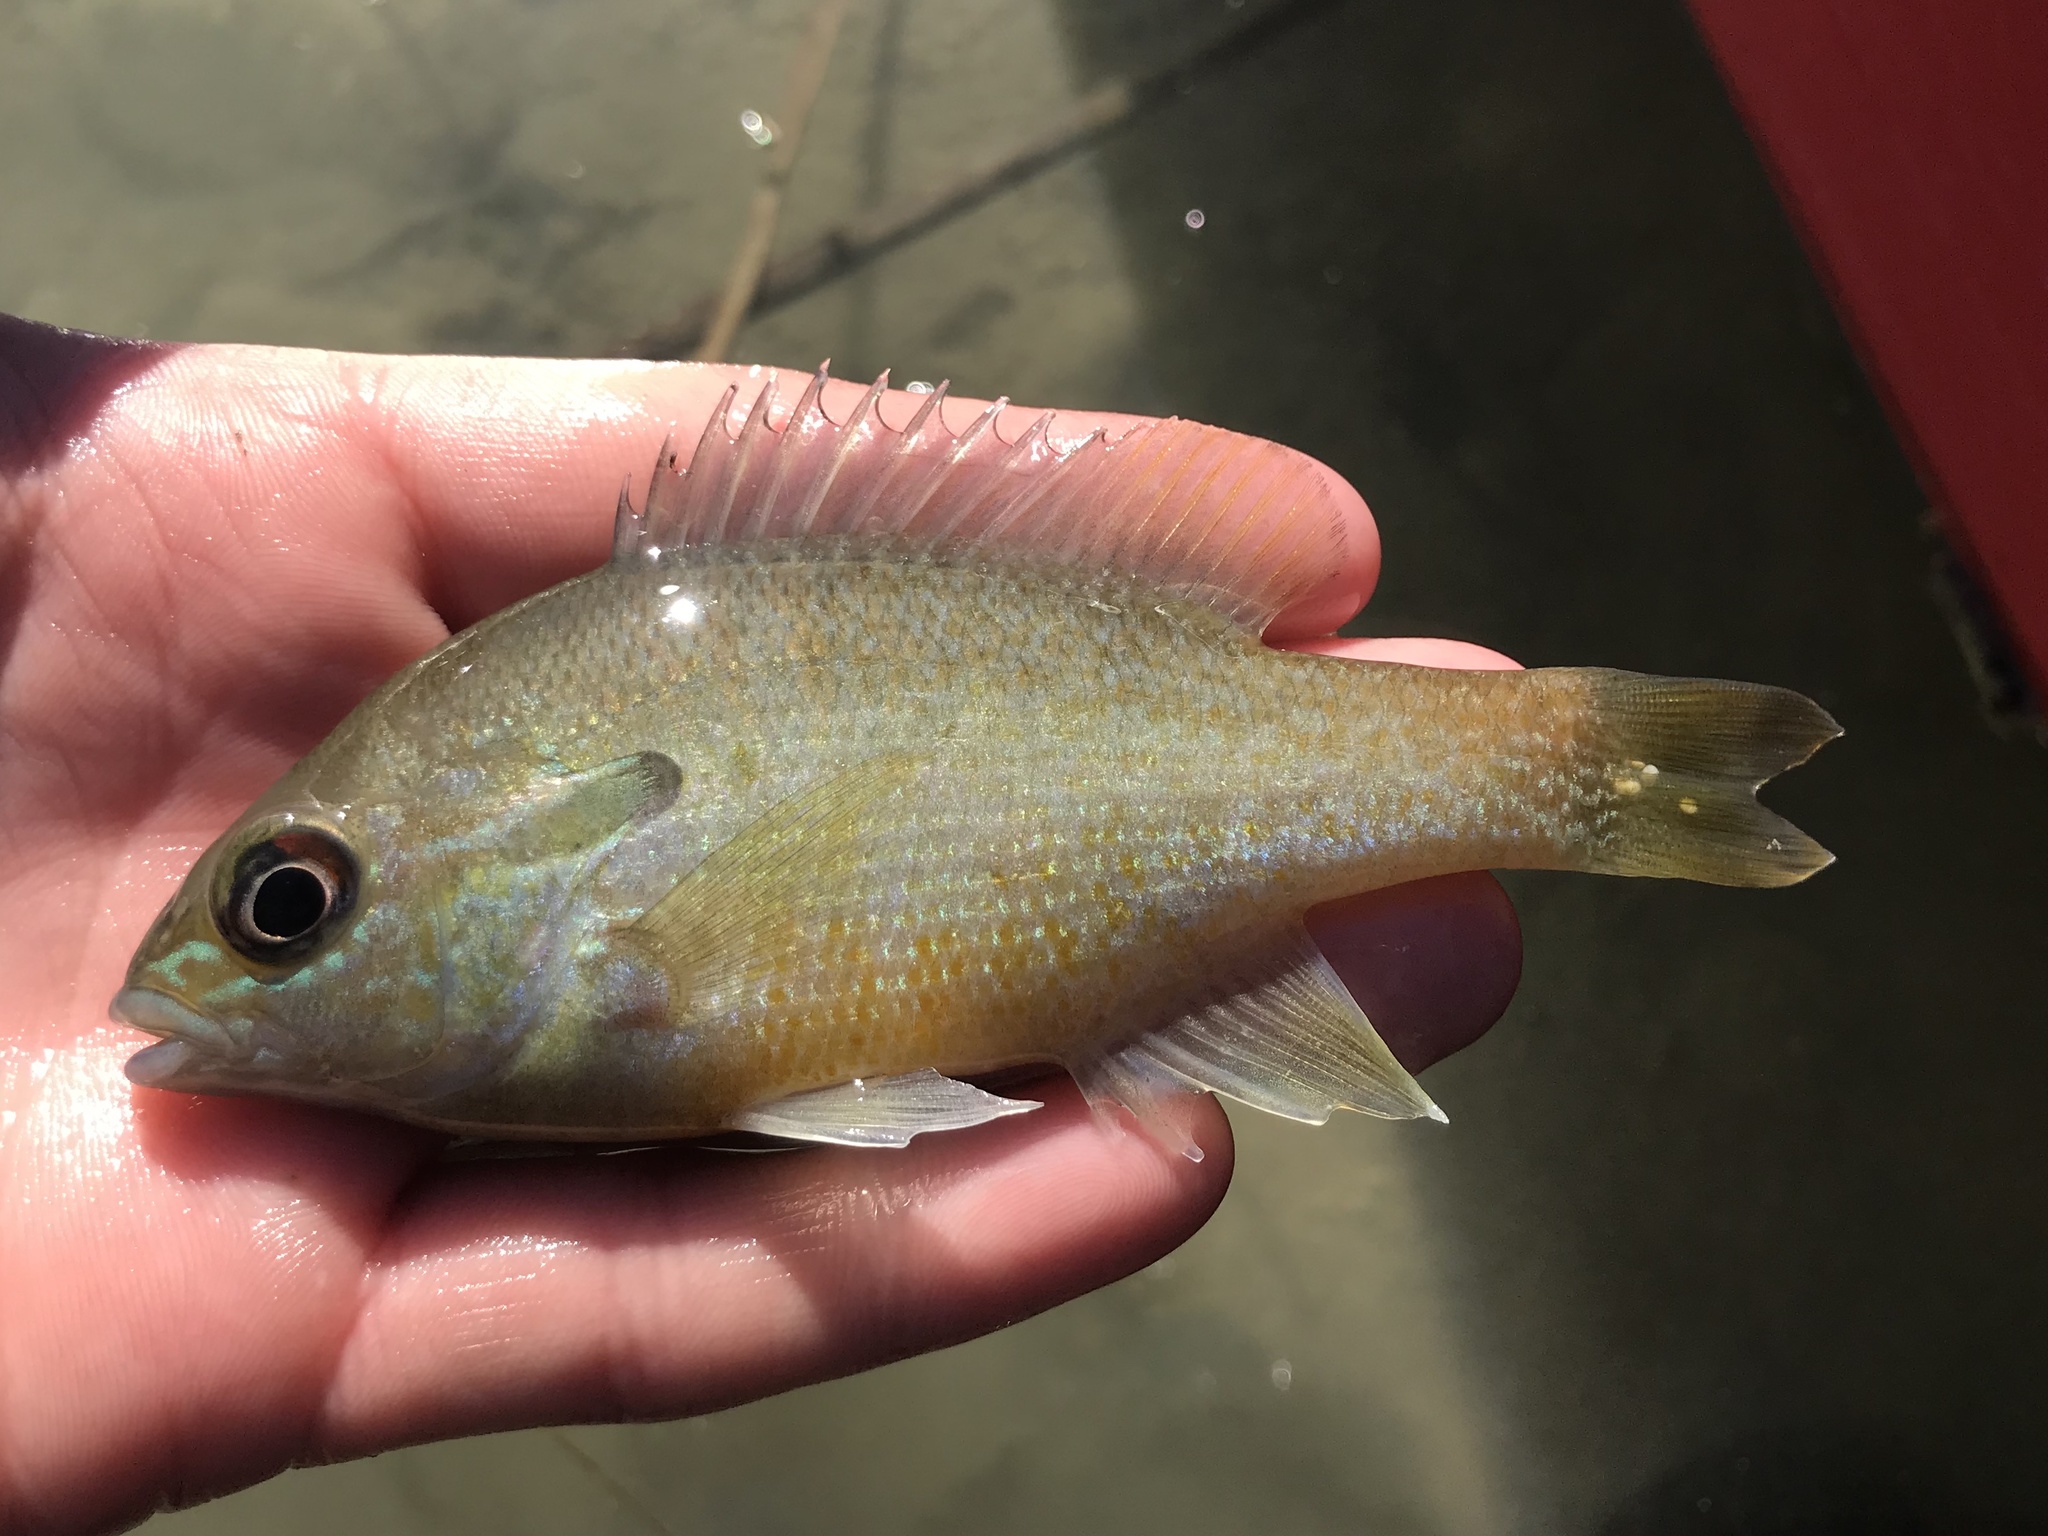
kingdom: Animalia
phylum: Chordata
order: Perciformes
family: Centrarchidae
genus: Lepomis
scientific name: Lepomis auritus
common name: Redbreast sunfish
